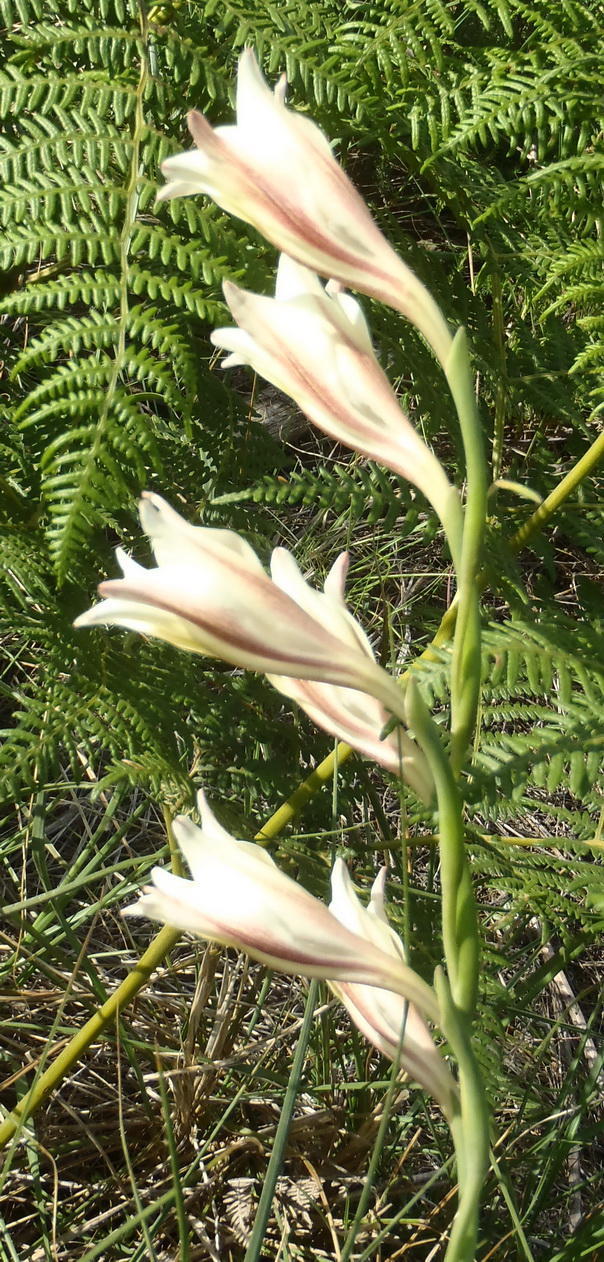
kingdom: Plantae
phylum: Tracheophyta
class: Liliopsida
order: Asparagales
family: Iridaceae
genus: Gladiolus
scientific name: Gladiolus tristis
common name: Ever-flowering gladiolus
